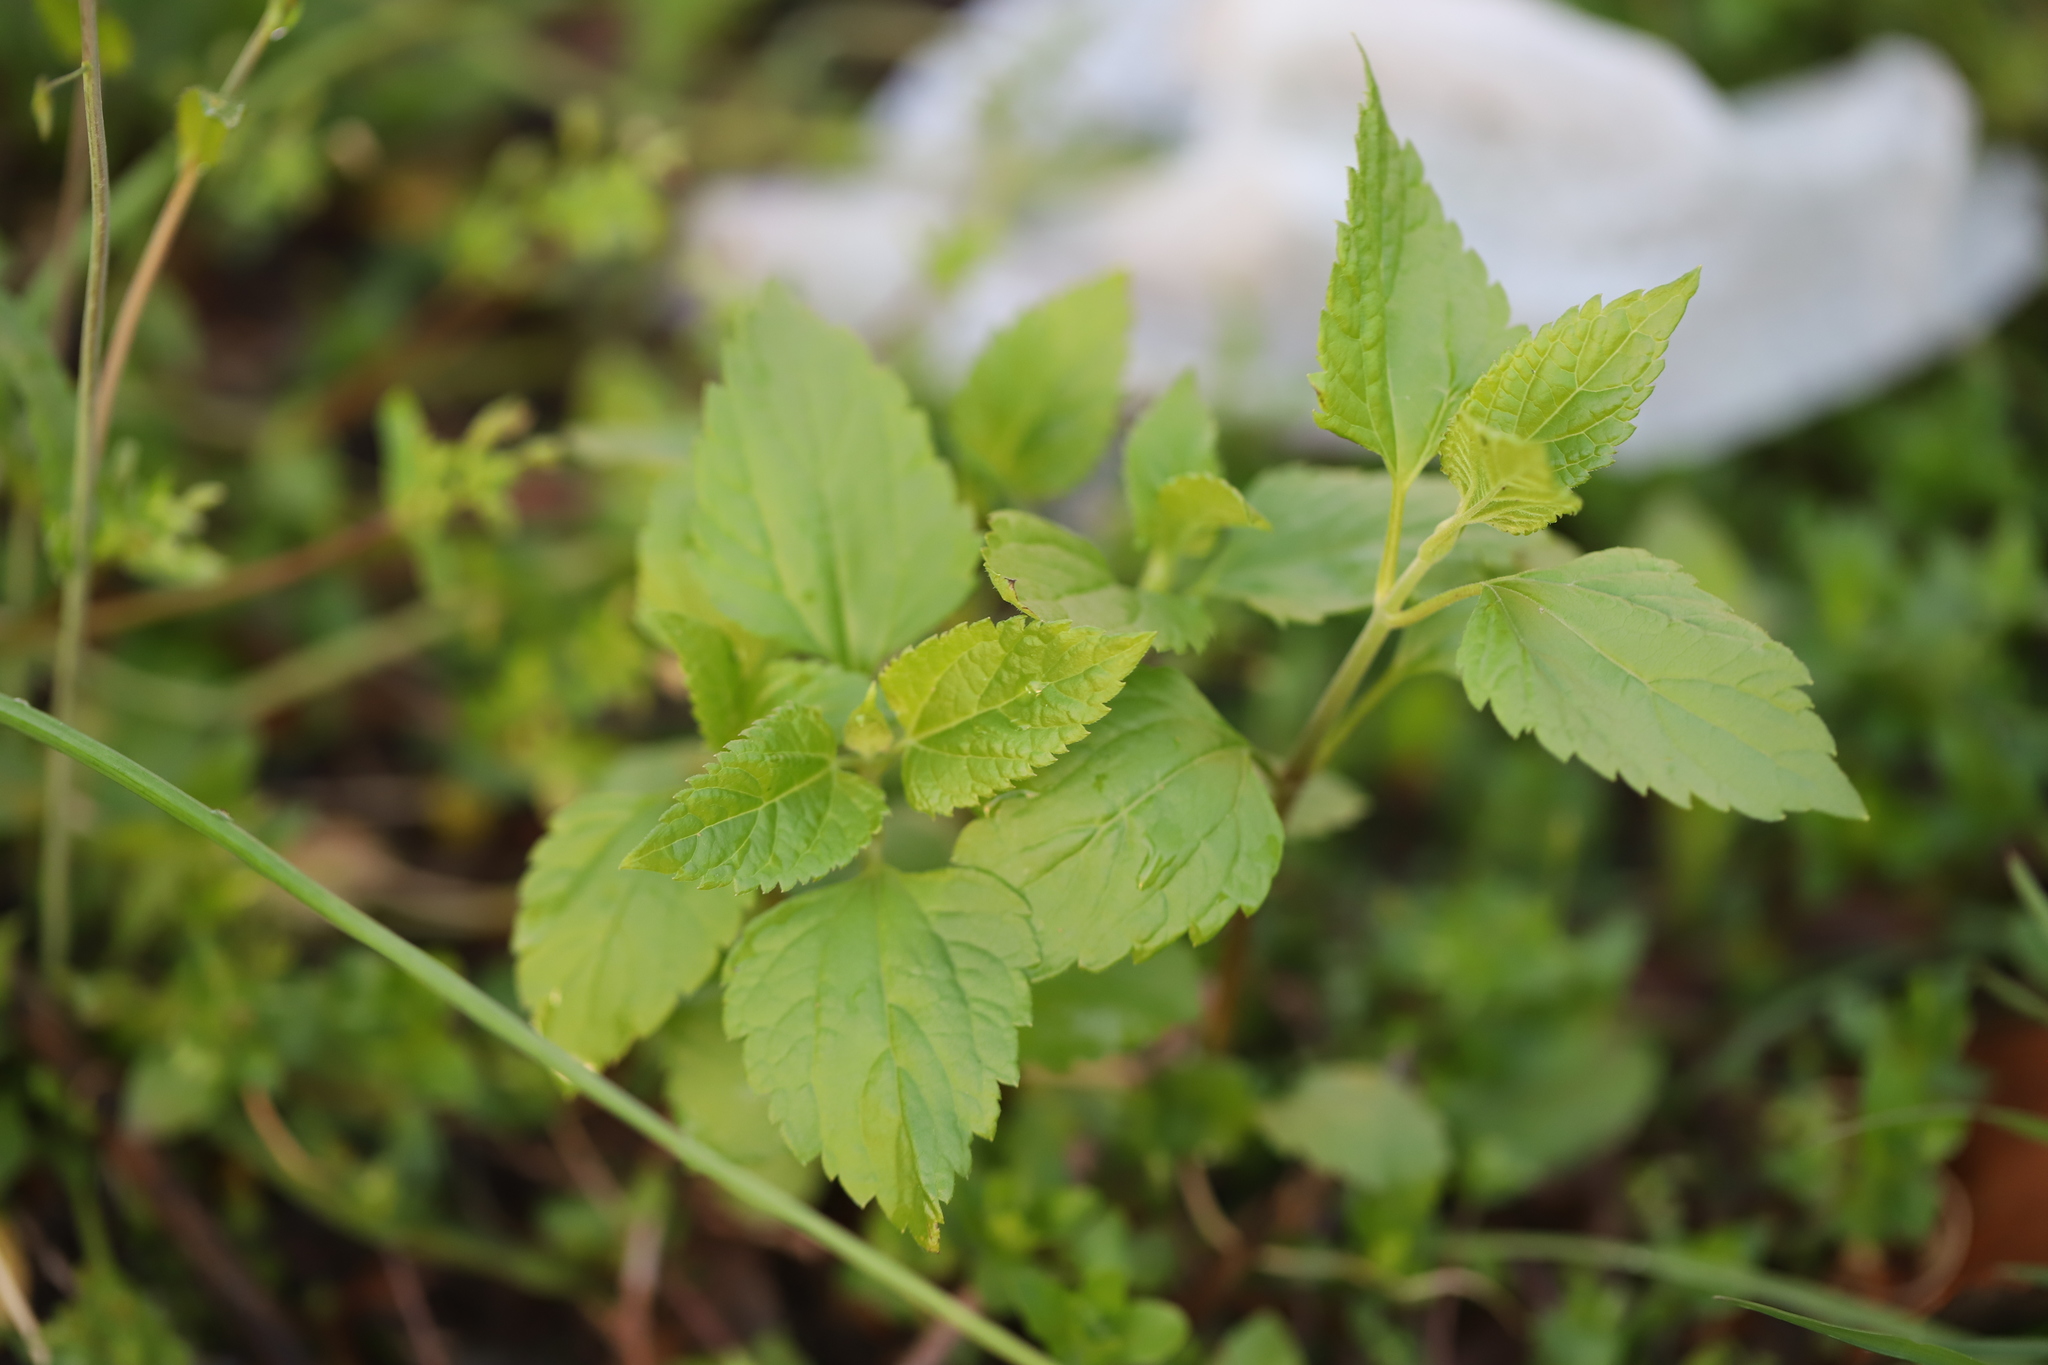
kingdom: Plantae
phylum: Tracheophyta
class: Magnoliopsida
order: Asterales
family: Asteraceae
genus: Ageratina
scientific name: Ageratina altissima
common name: White snakeroot
